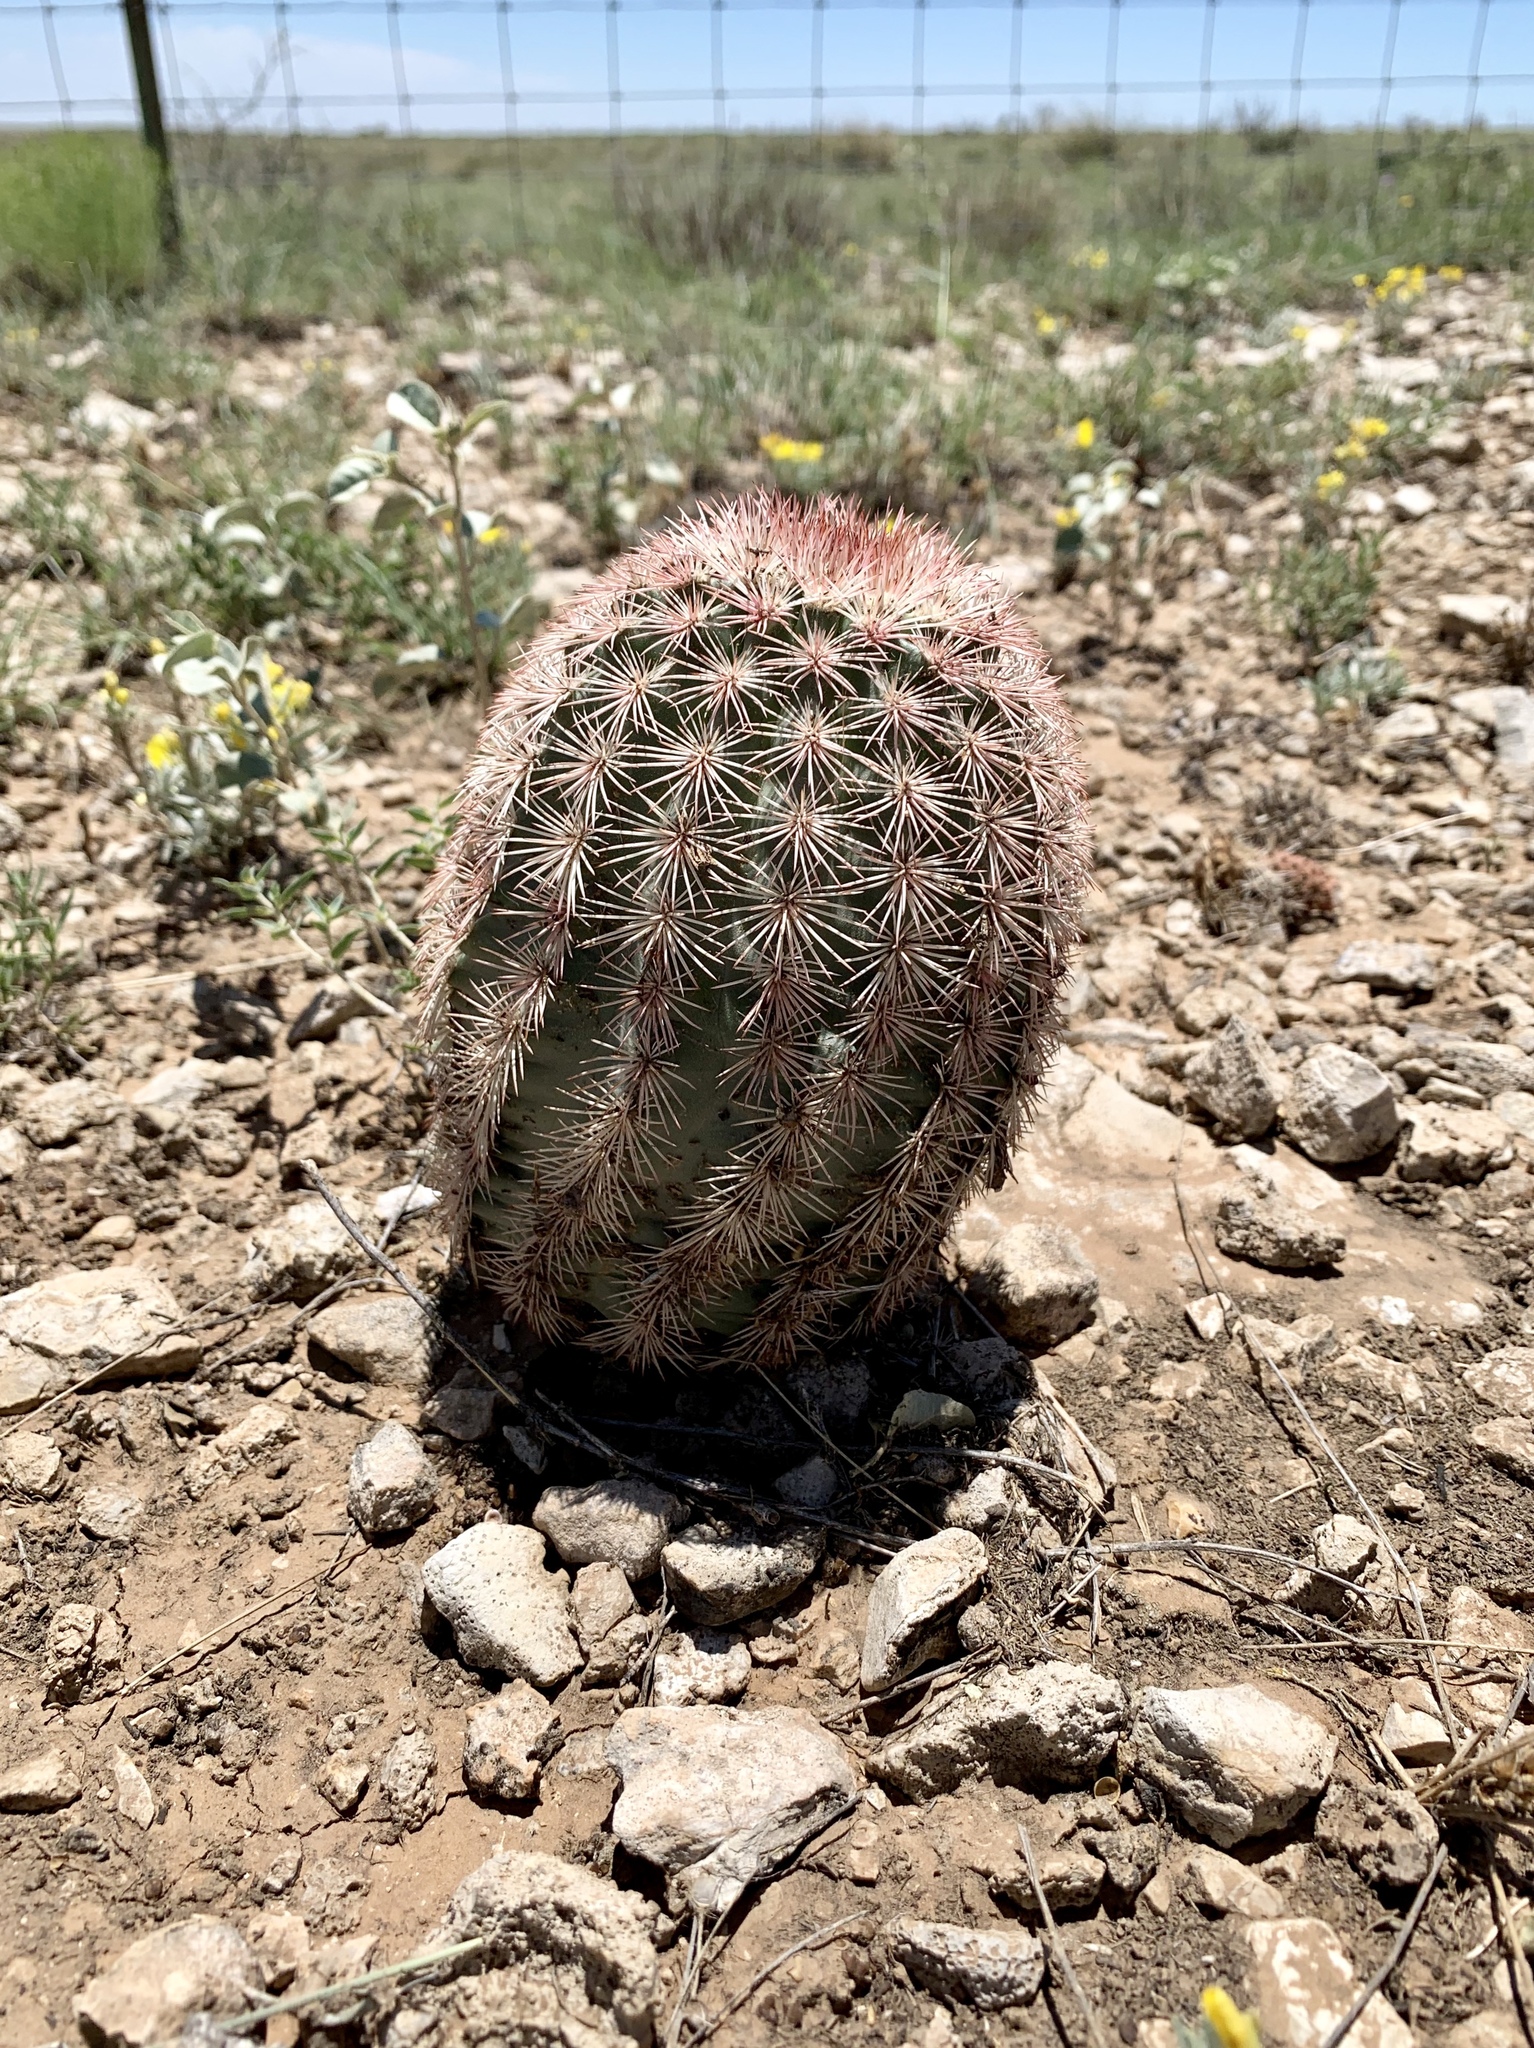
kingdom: Plantae
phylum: Tracheophyta
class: Magnoliopsida
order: Caryophyllales
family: Cactaceae
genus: Echinocereus
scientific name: Echinocereus dasyacanthus
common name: Spiny hedgehog cactus
